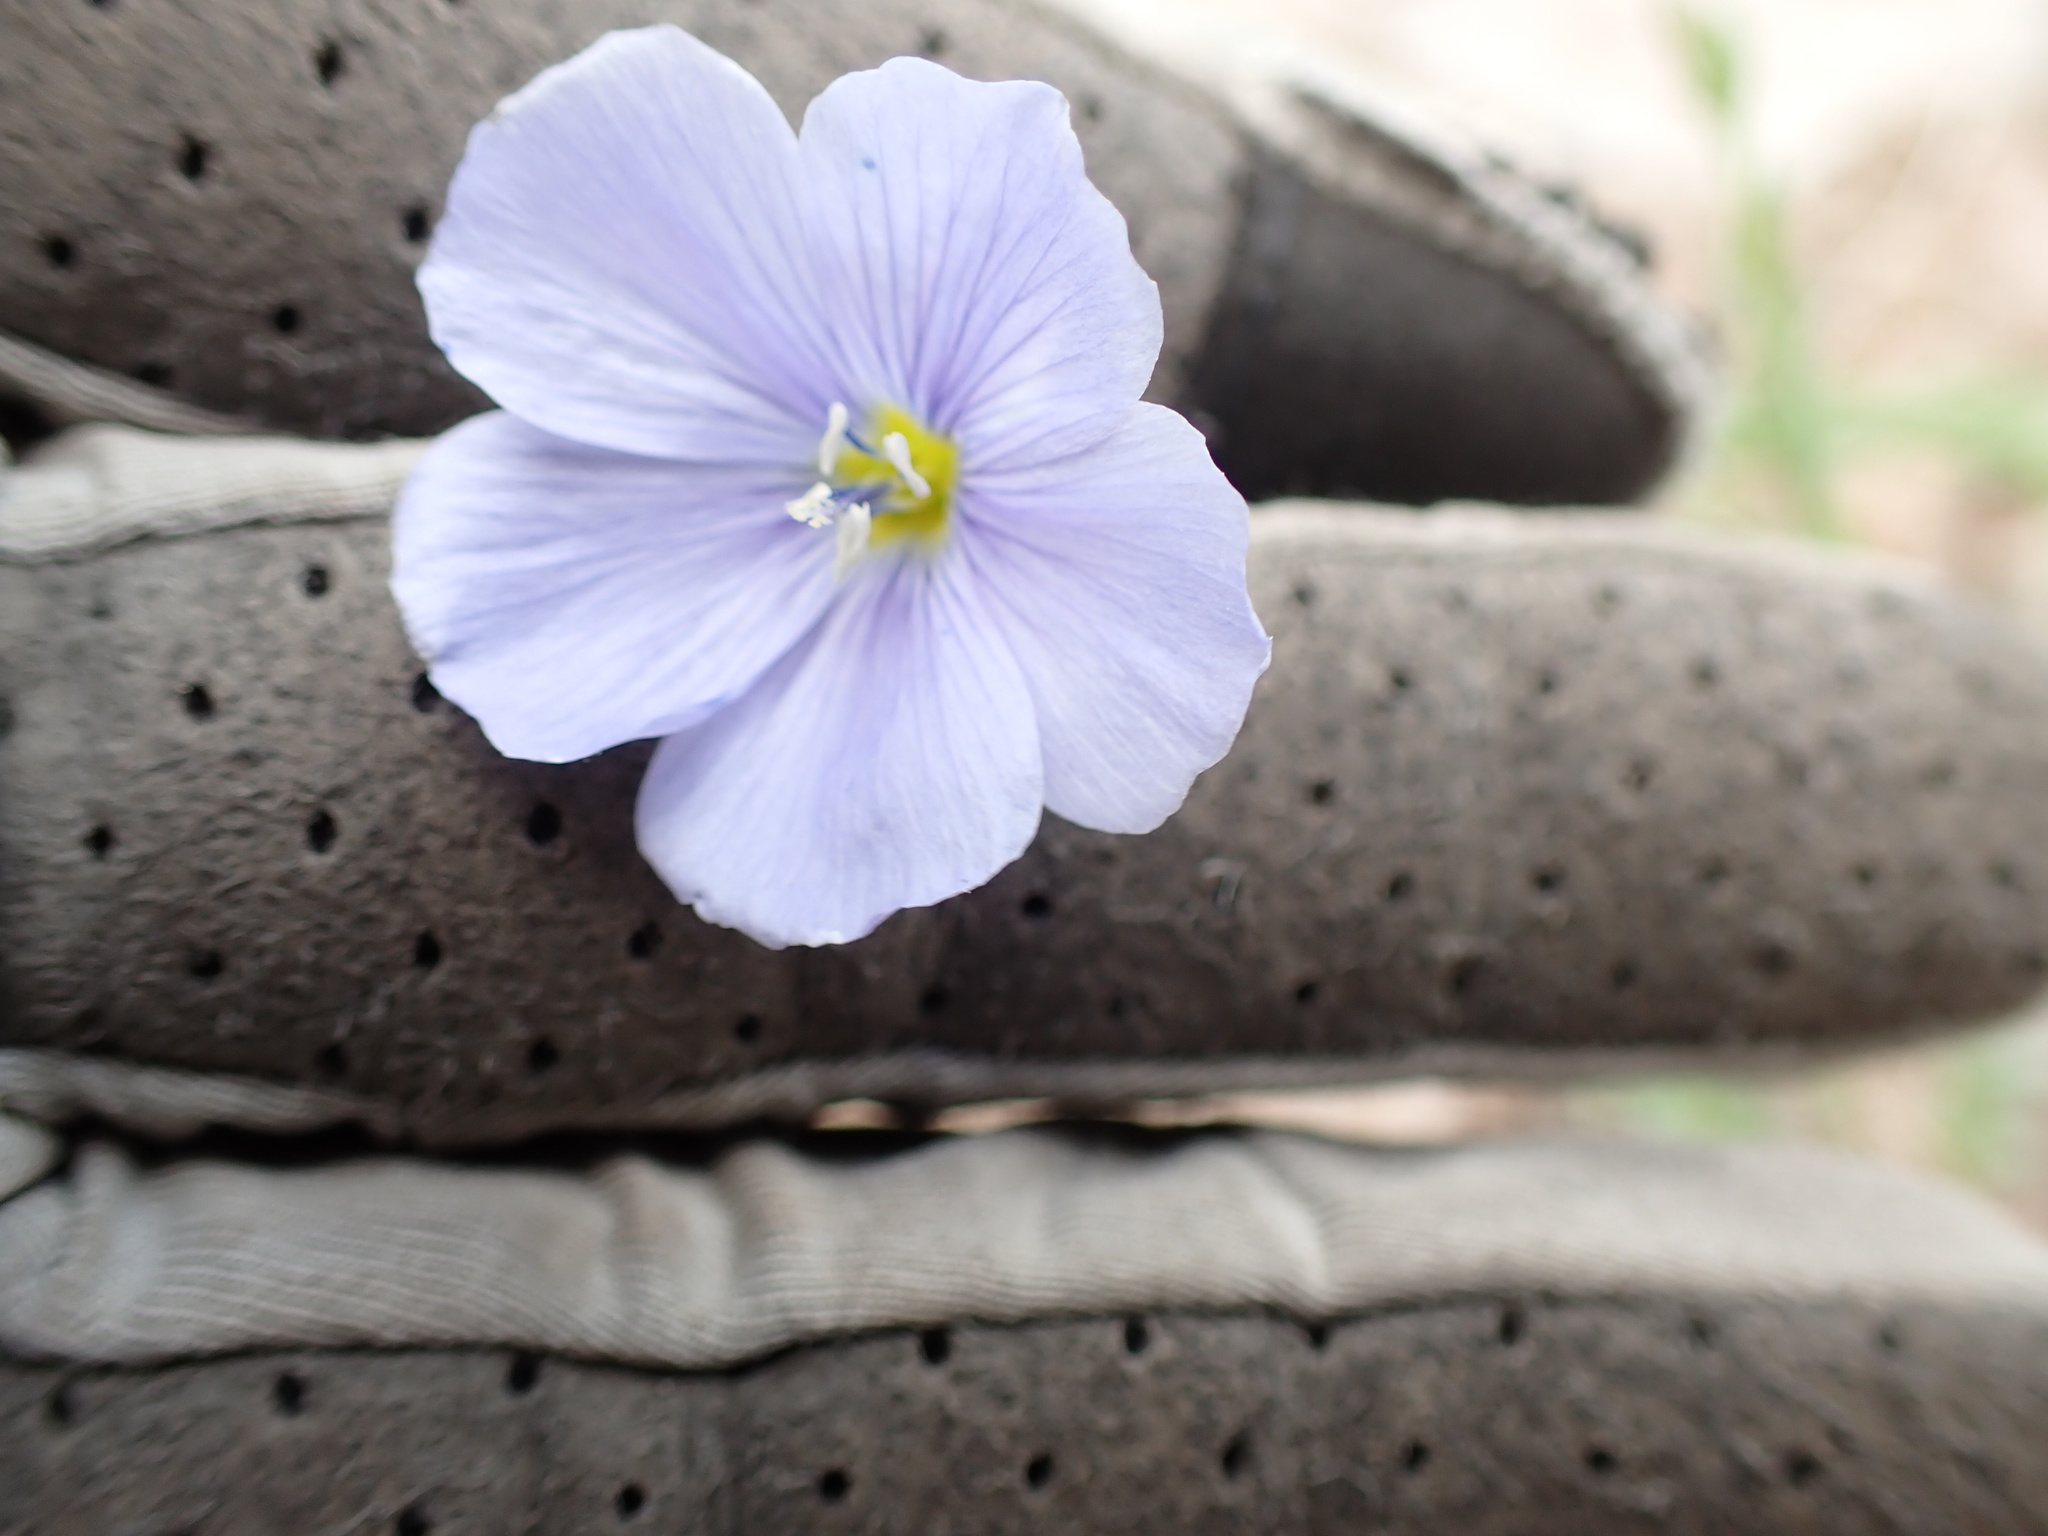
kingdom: Plantae
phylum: Tracheophyta
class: Magnoliopsida
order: Malpighiales
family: Linaceae
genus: Linum
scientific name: Linum lewisii
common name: Prairie flax
